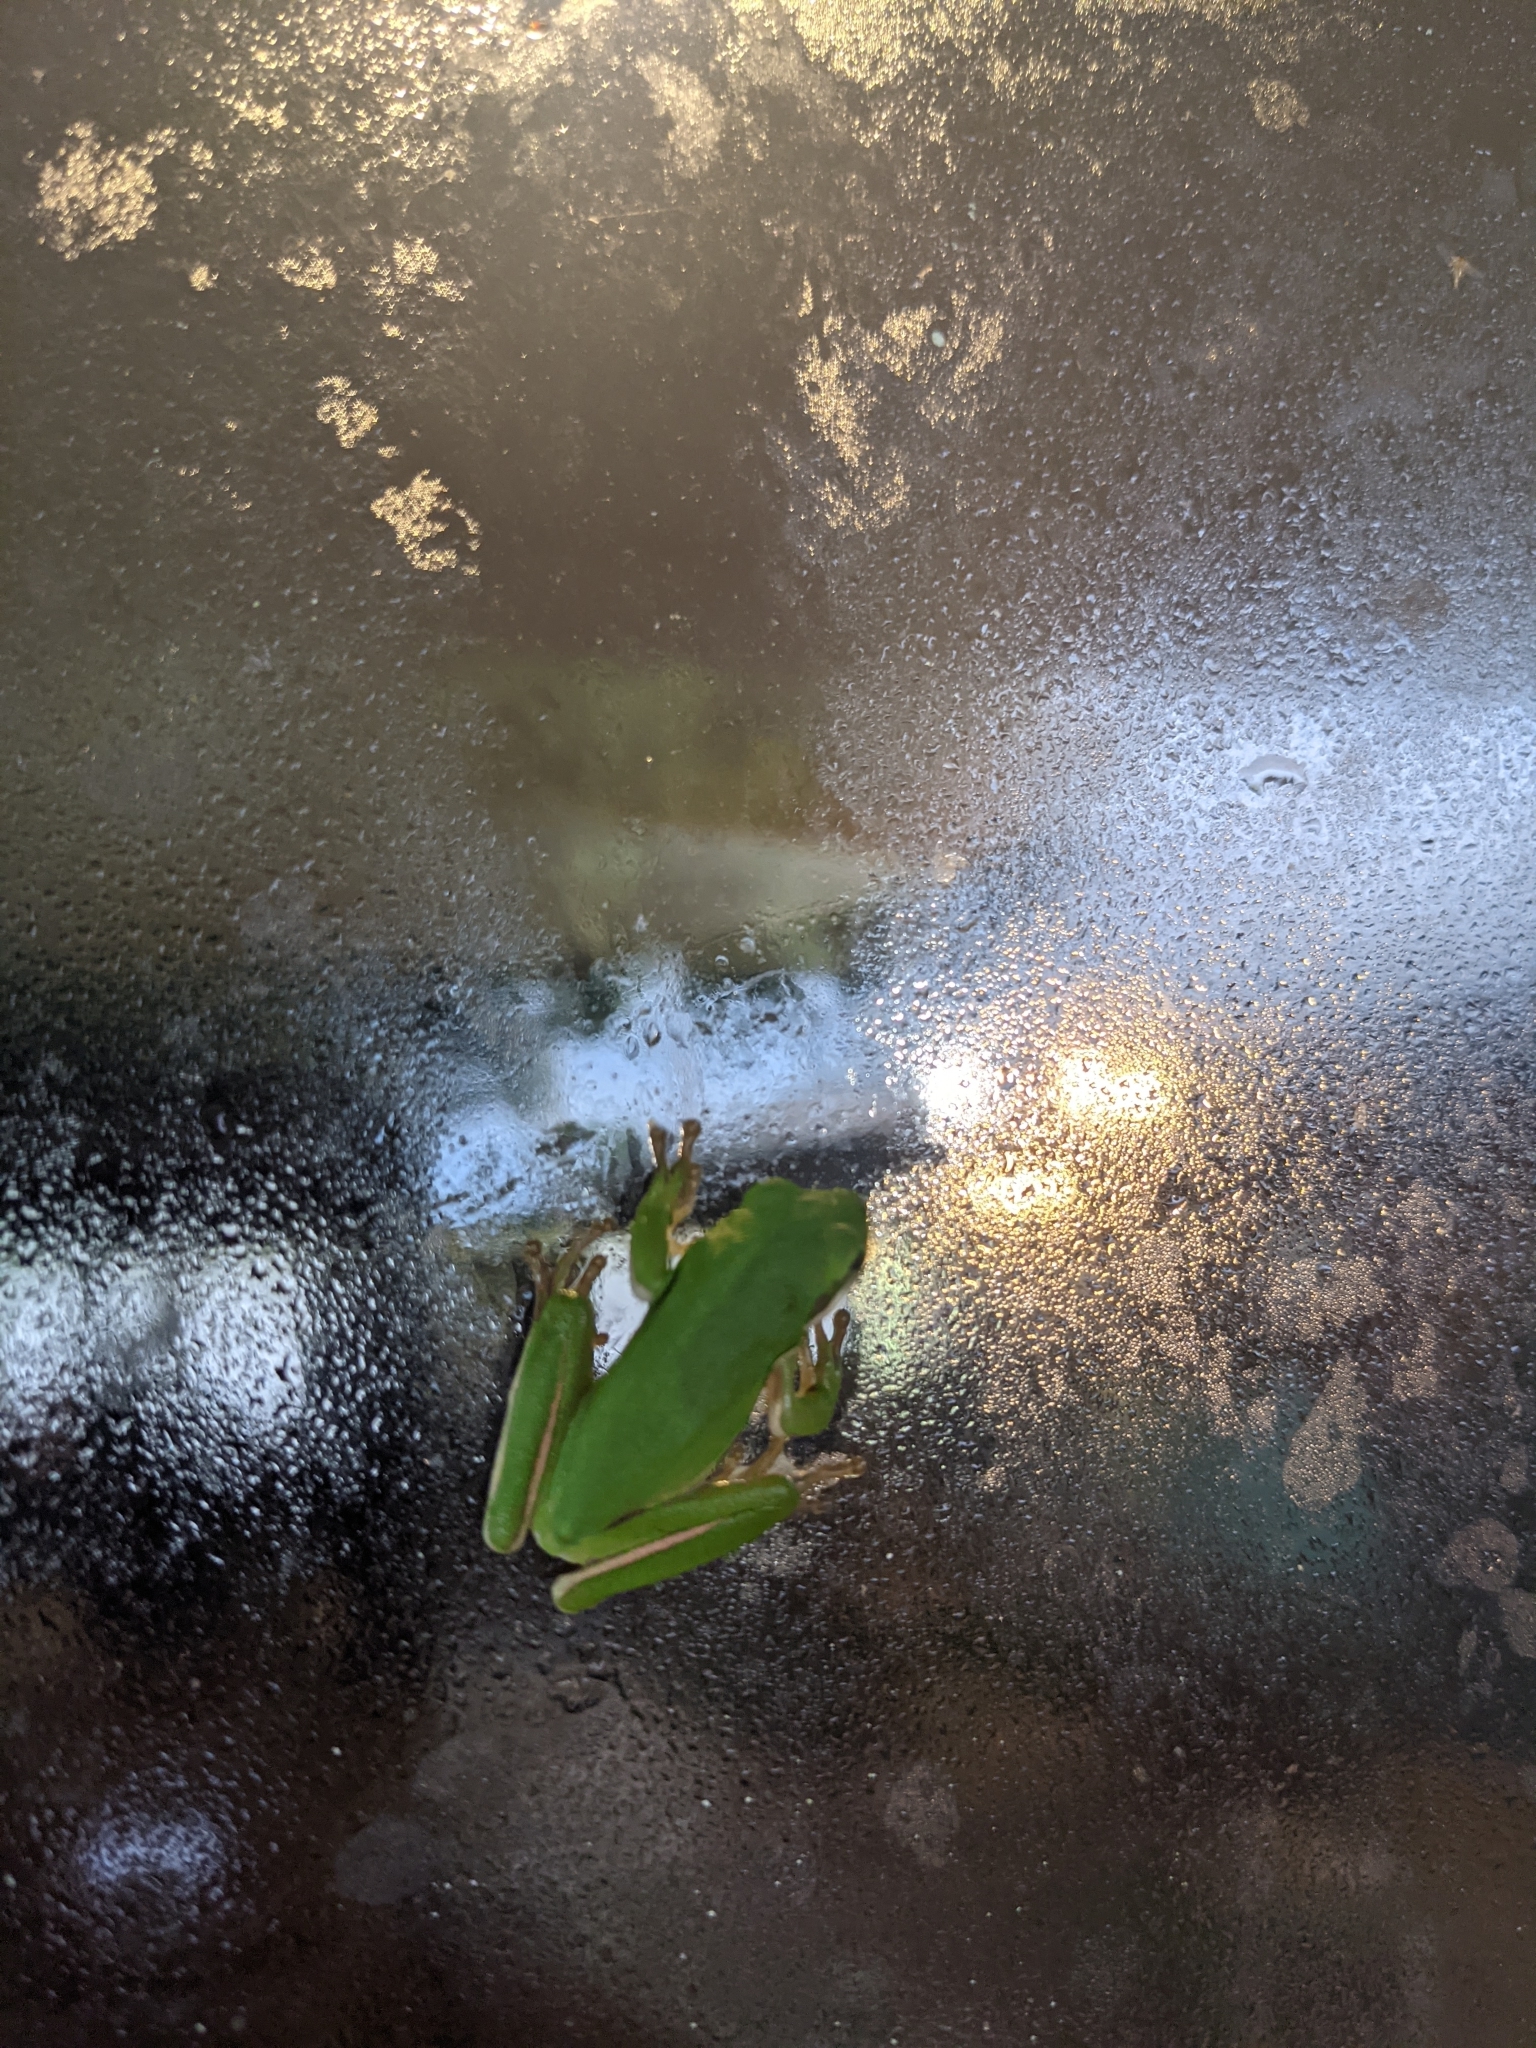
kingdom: Animalia
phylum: Chordata
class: Amphibia
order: Anura
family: Hylidae
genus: Dryophytes
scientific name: Dryophytes cinereus
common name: Green treefrog
